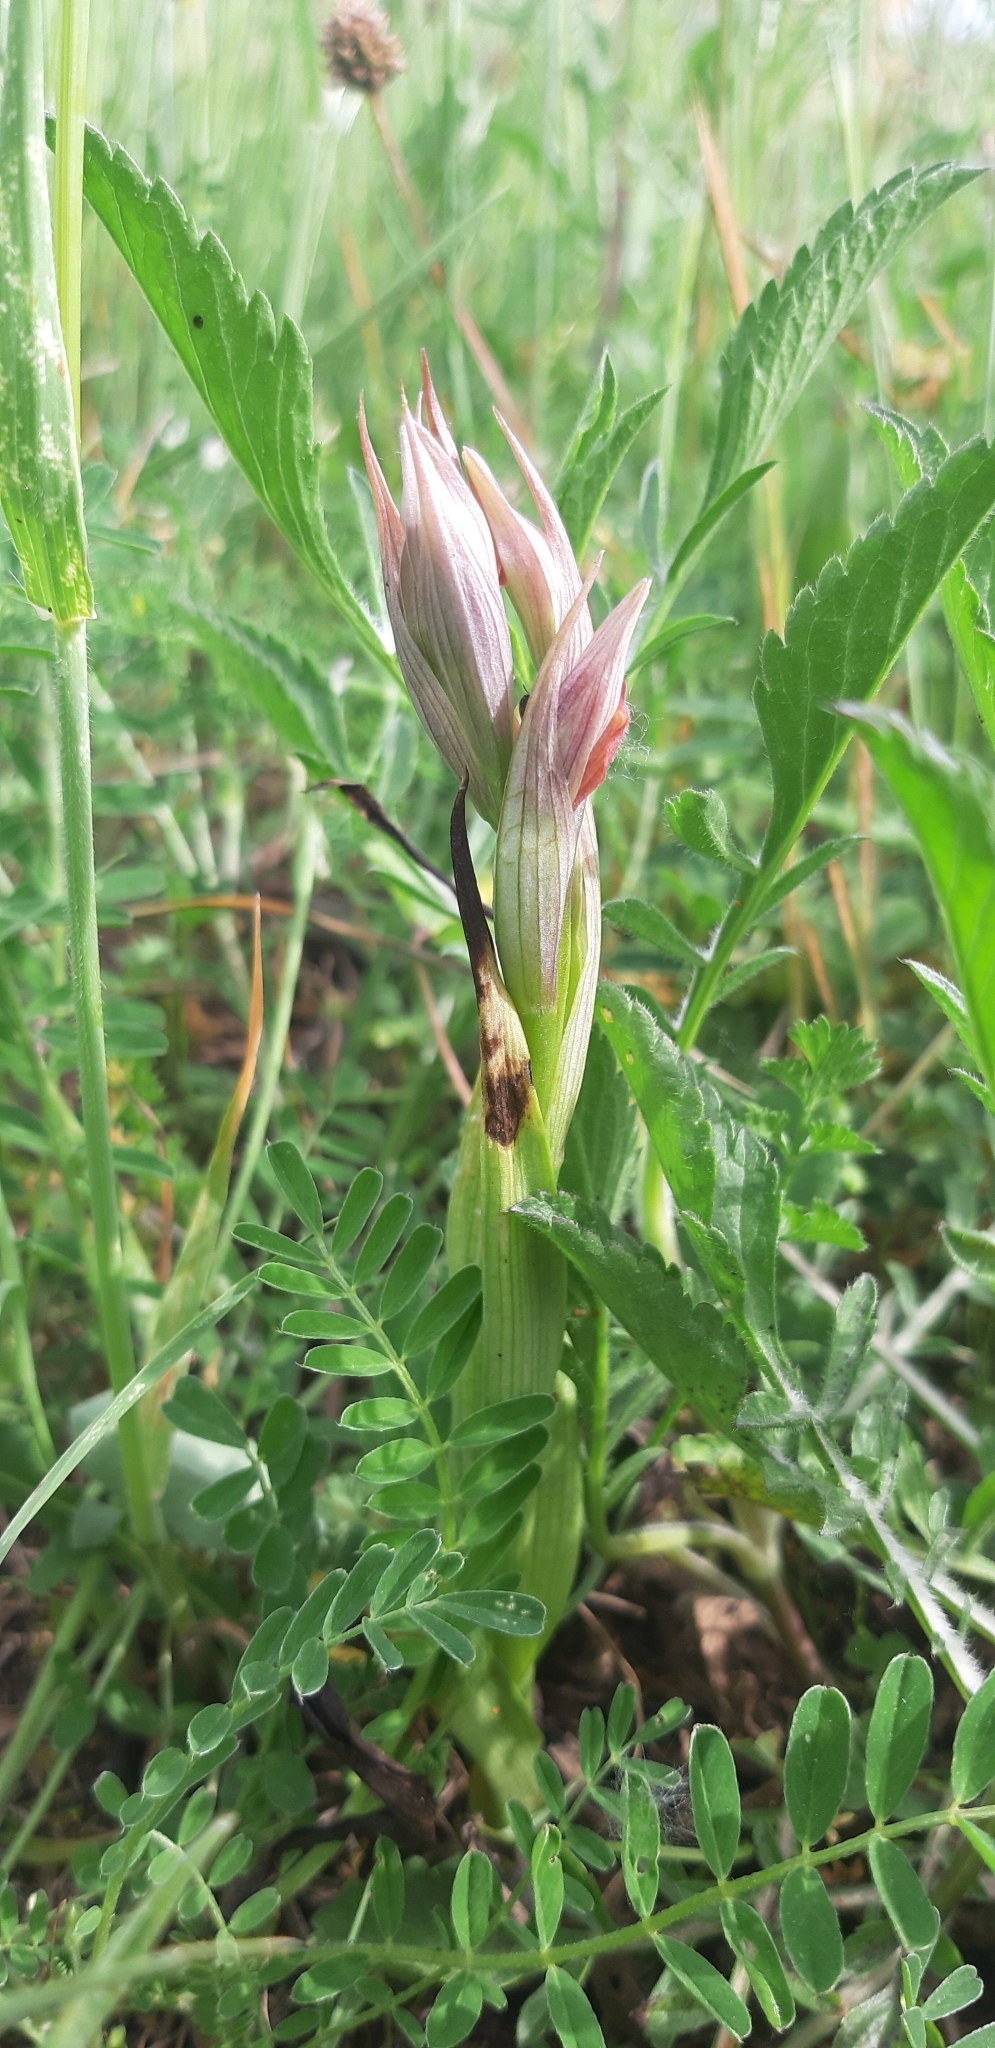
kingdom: Plantae
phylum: Tracheophyta
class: Liliopsida
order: Asparagales
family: Orchidaceae
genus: Serapias
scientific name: Serapias parviflora
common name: Small-flowered tongue-orchid
